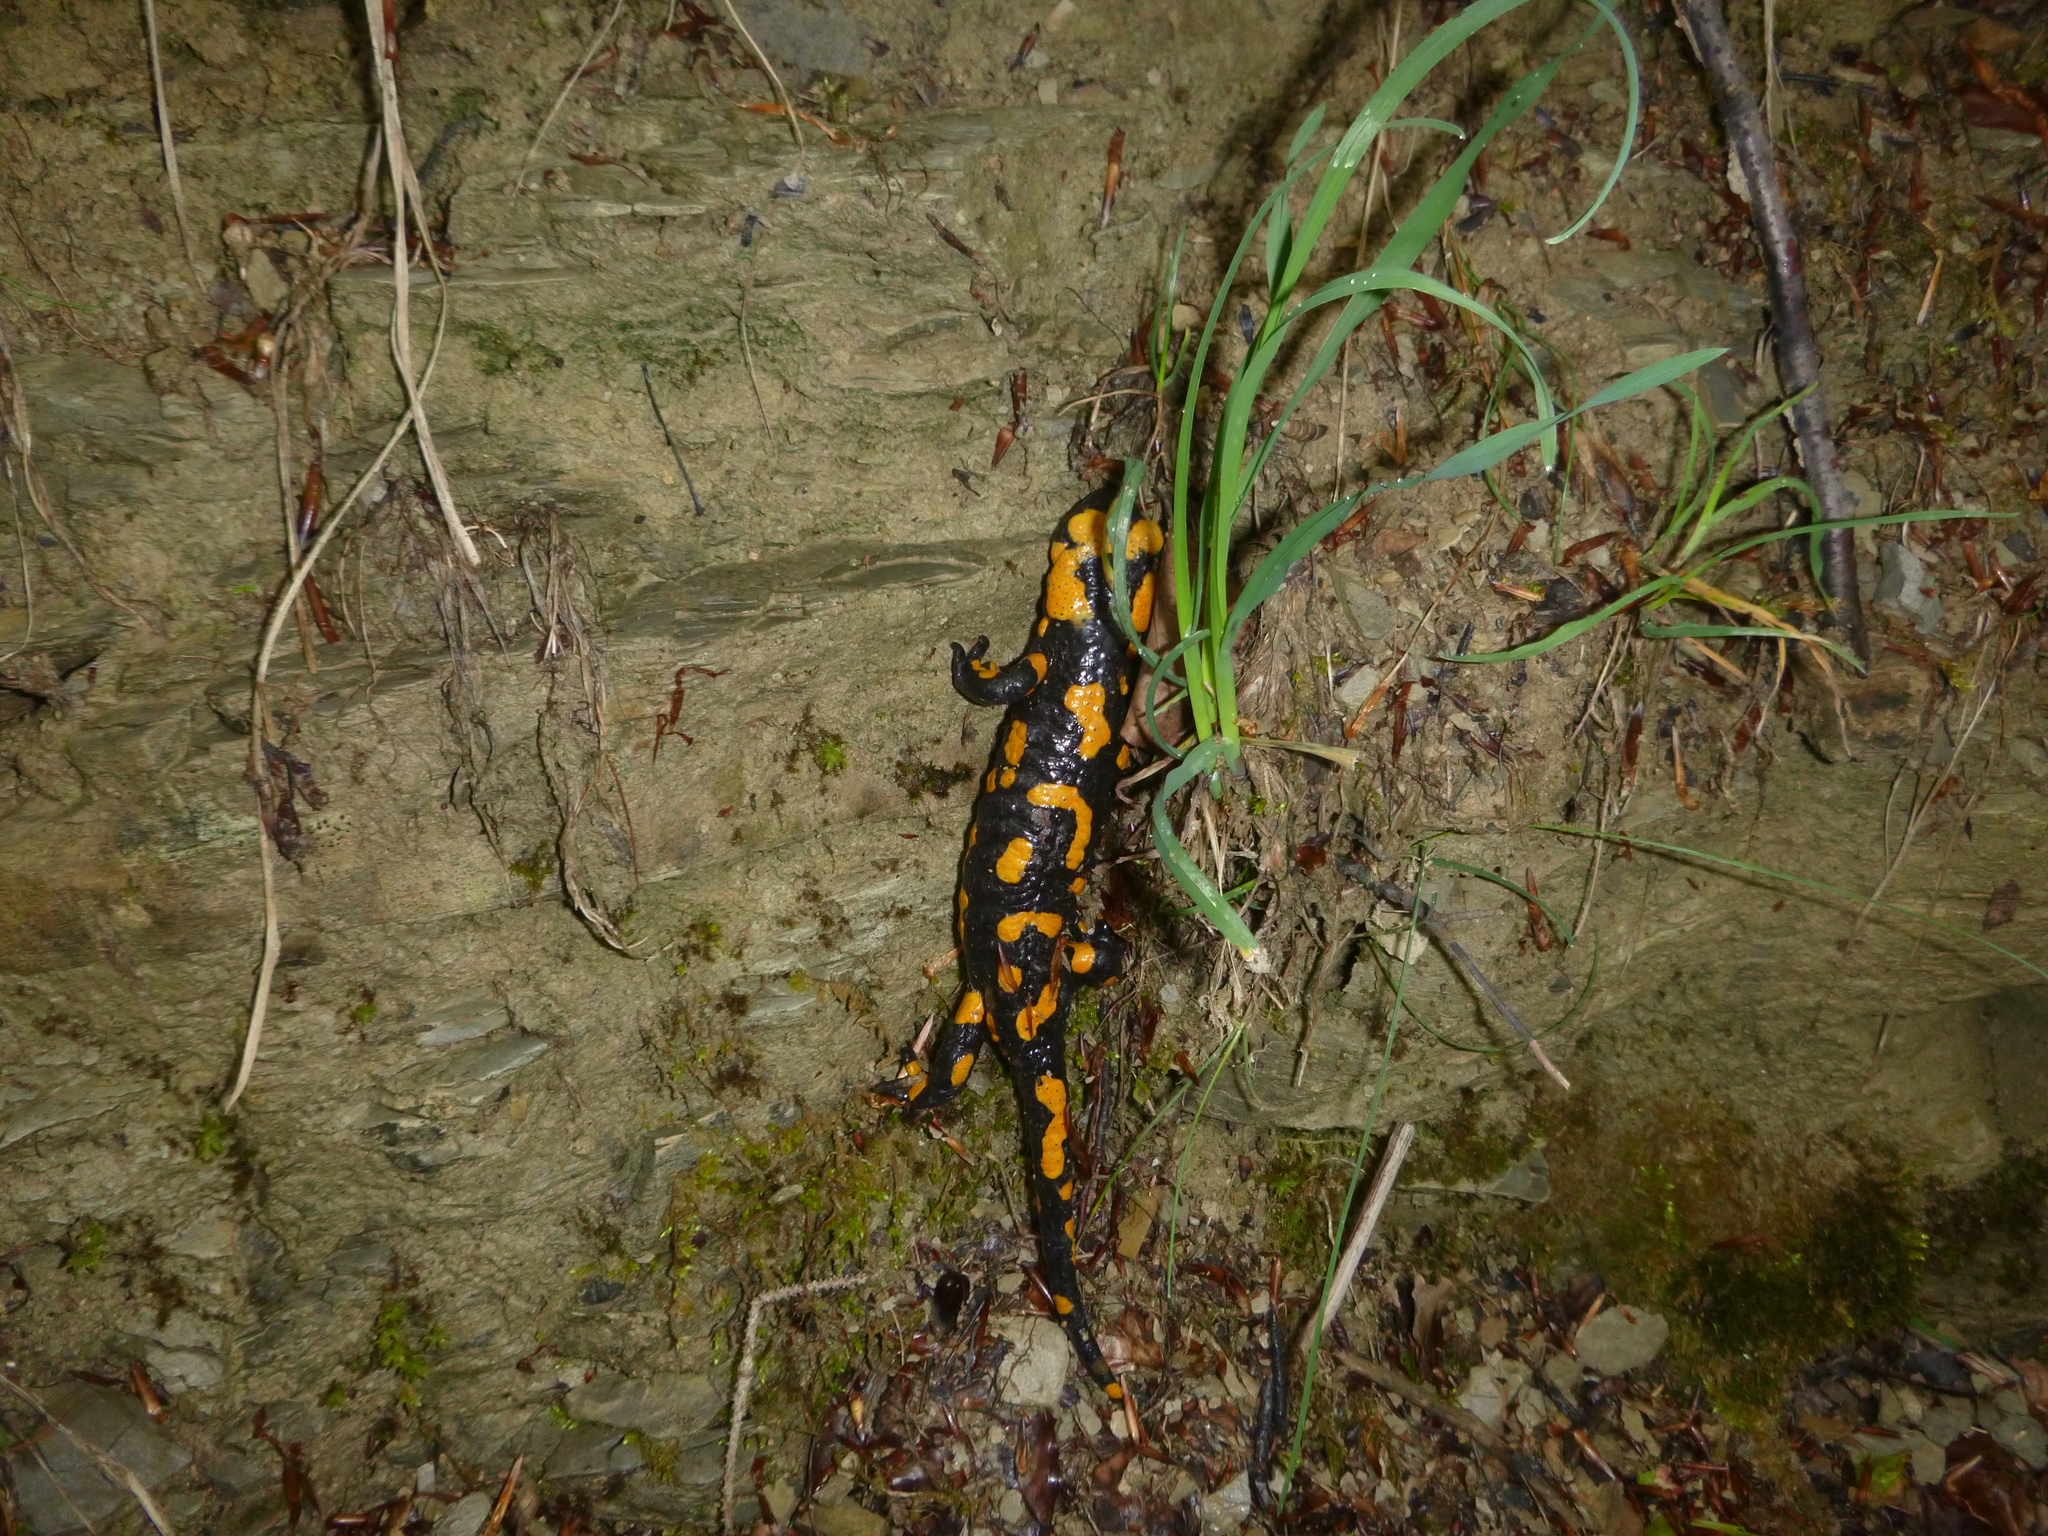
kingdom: Animalia
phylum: Chordata
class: Amphibia
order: Caudata
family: Salamandridae
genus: Salamandra
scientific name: Salamandra salamandra
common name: Fire salamander
